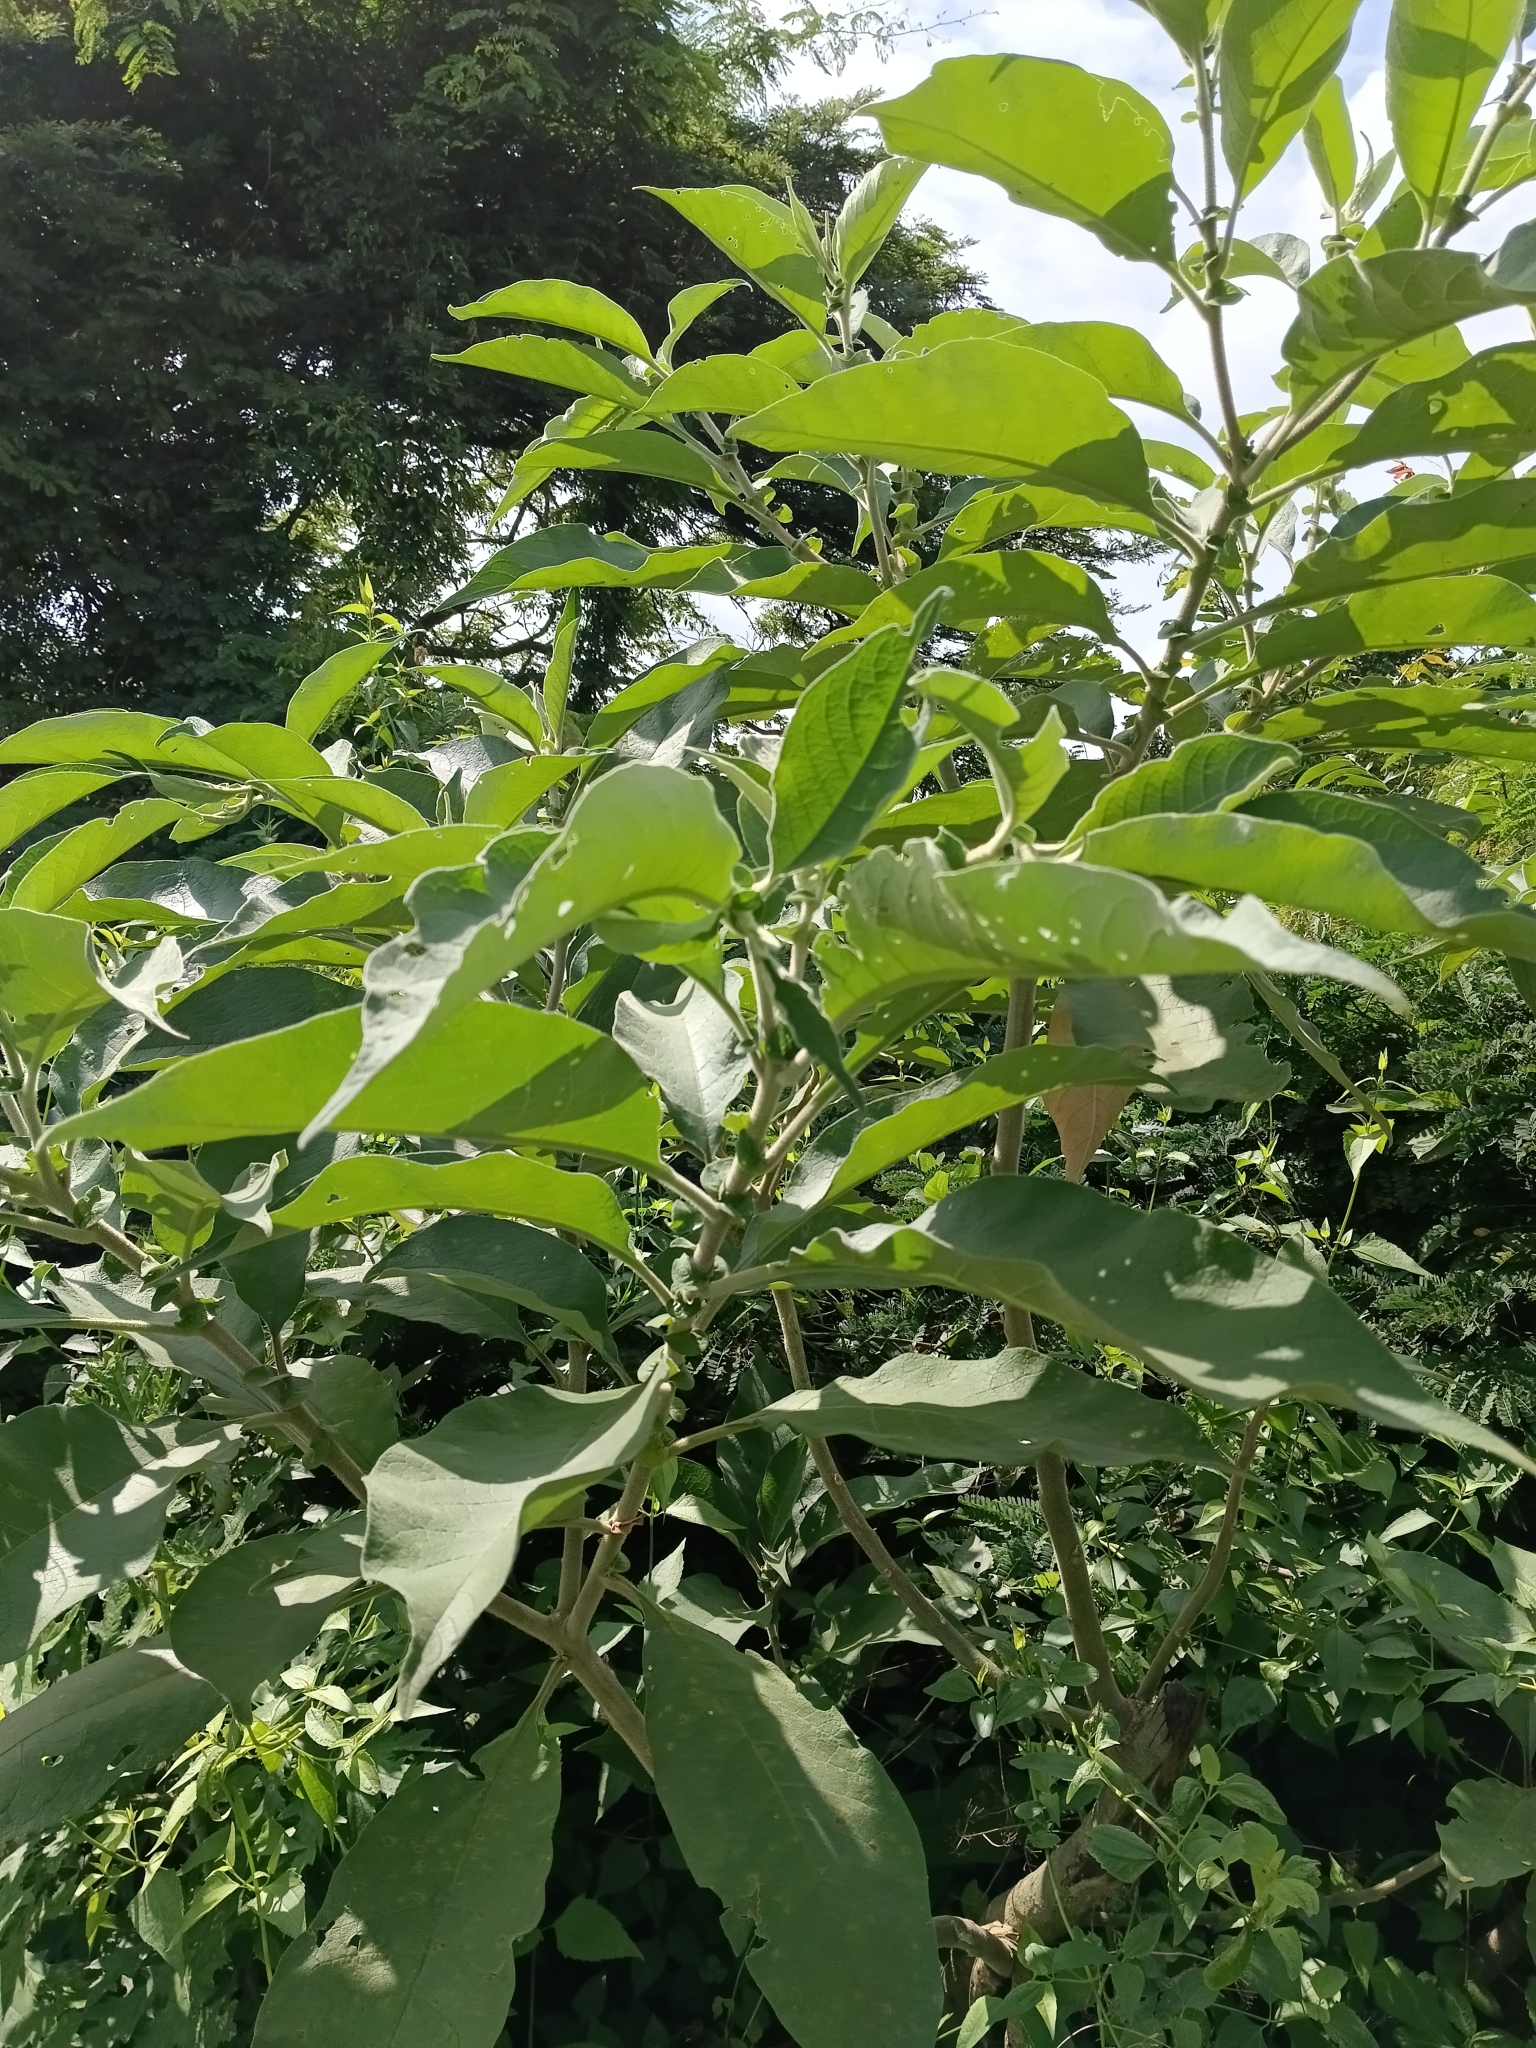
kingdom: Plantae
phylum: Tracheophyta
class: Magnoliopsida
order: Solanales
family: Solanaceae
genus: Solanum
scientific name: Solanum mauritianum
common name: Earleaf nightshade
